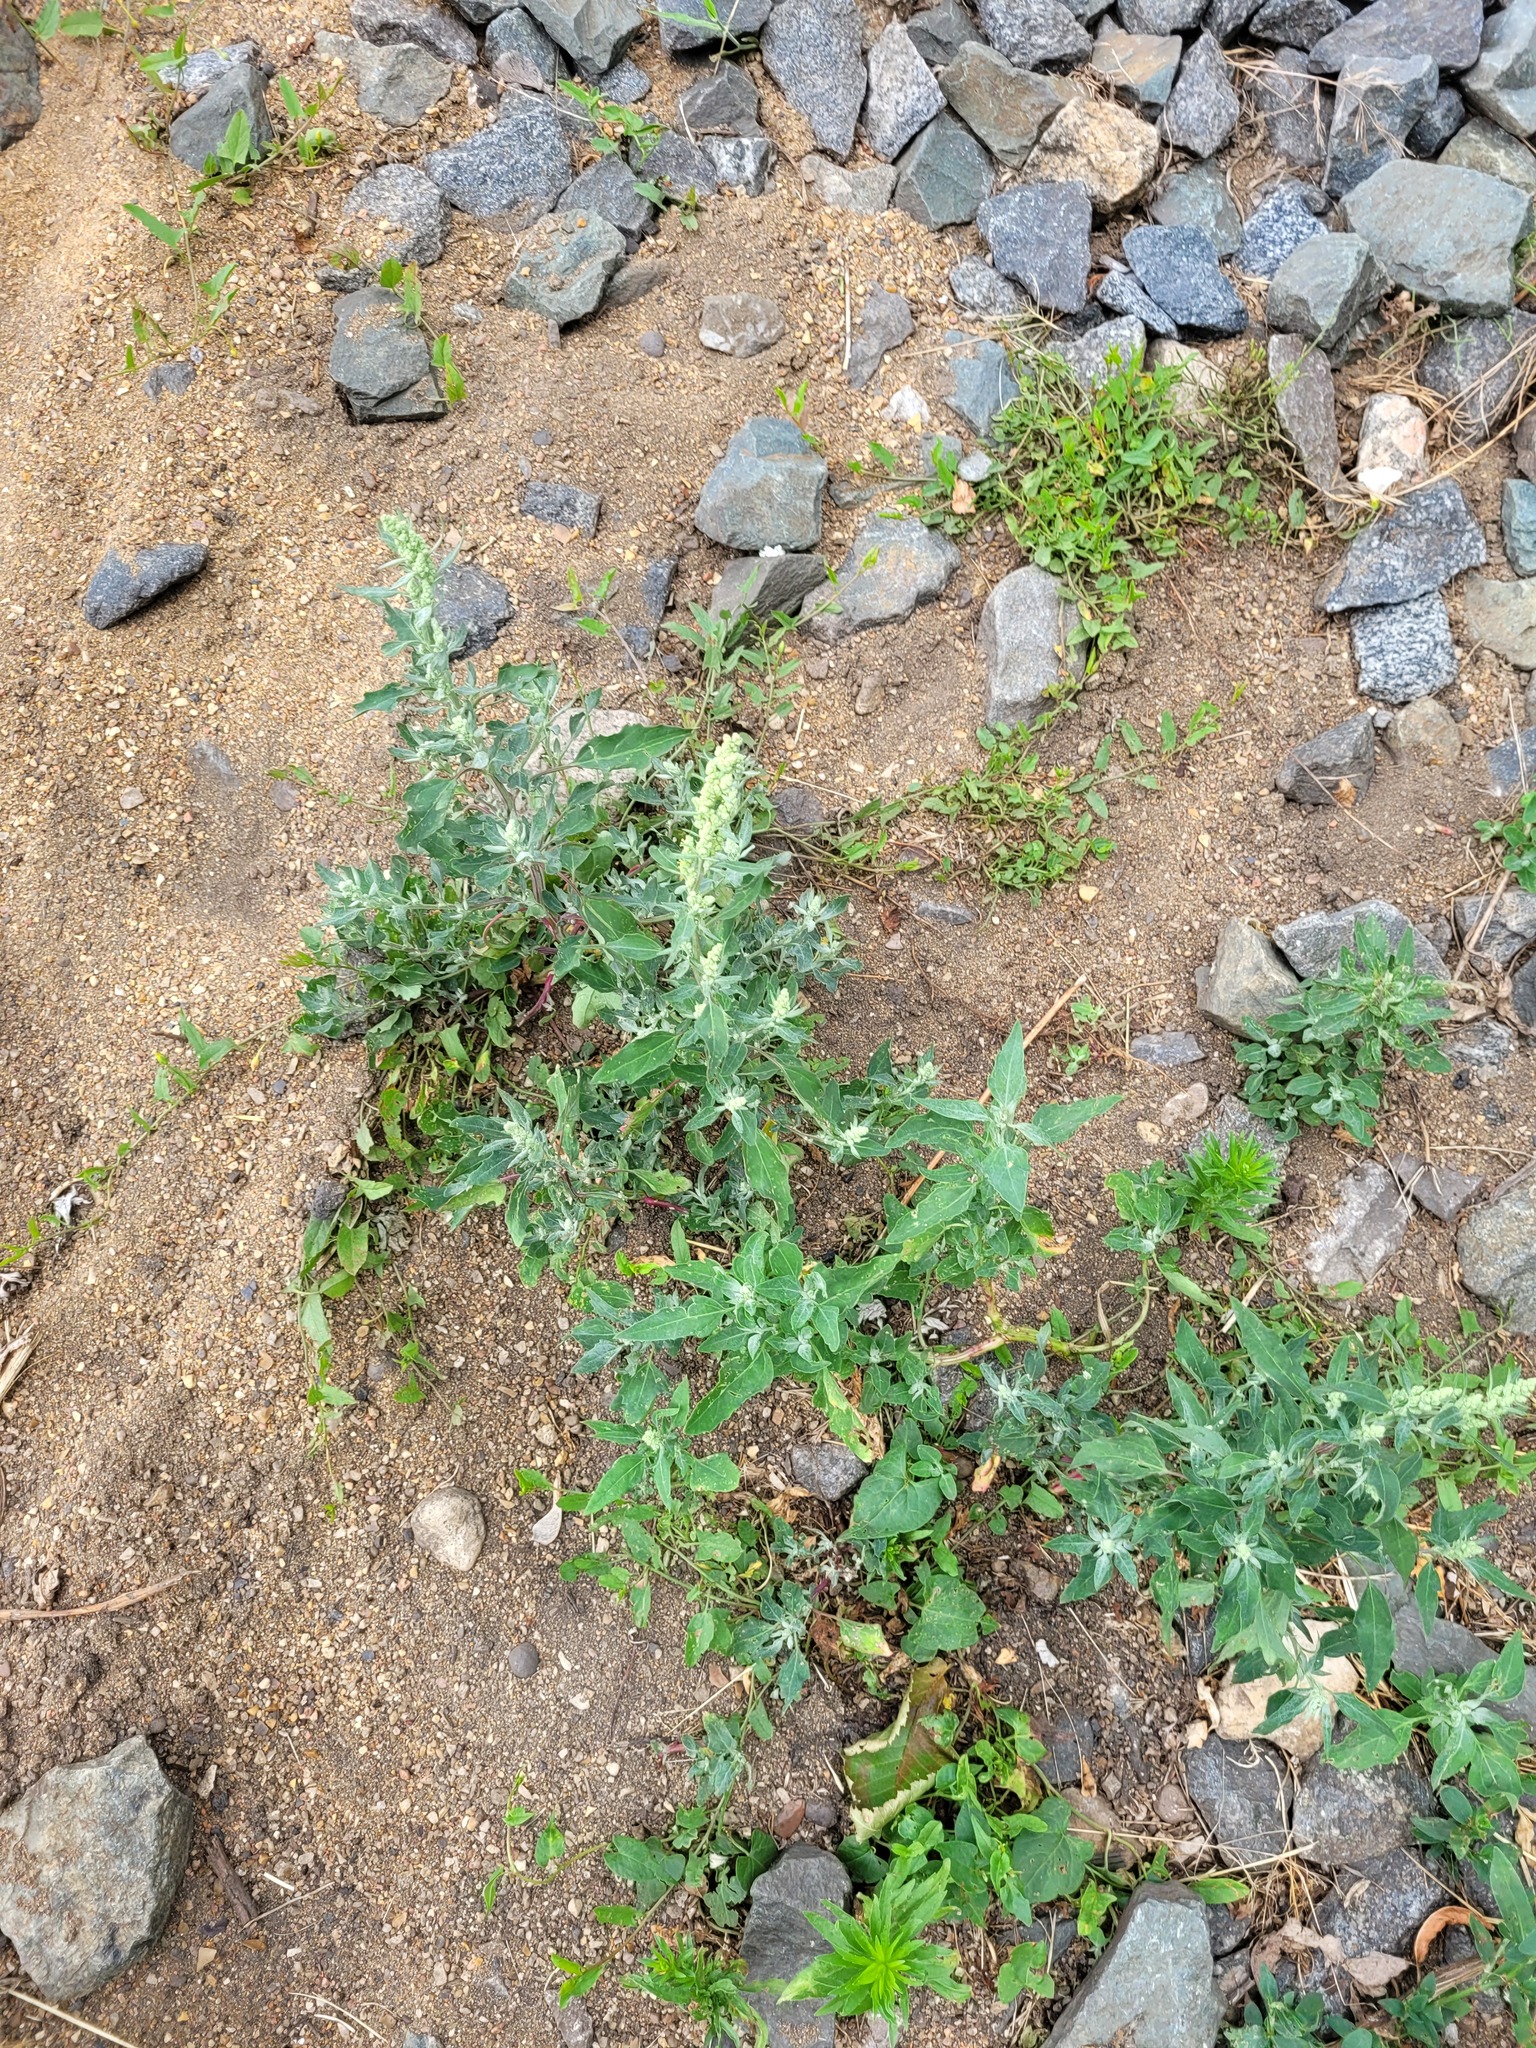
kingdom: Plantae
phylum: Tracheophyta
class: Magnoliopsida
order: Caryophyllales
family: Amaranthaceae
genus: Chenopodium
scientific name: Chenopodium album
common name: Fat-hen
